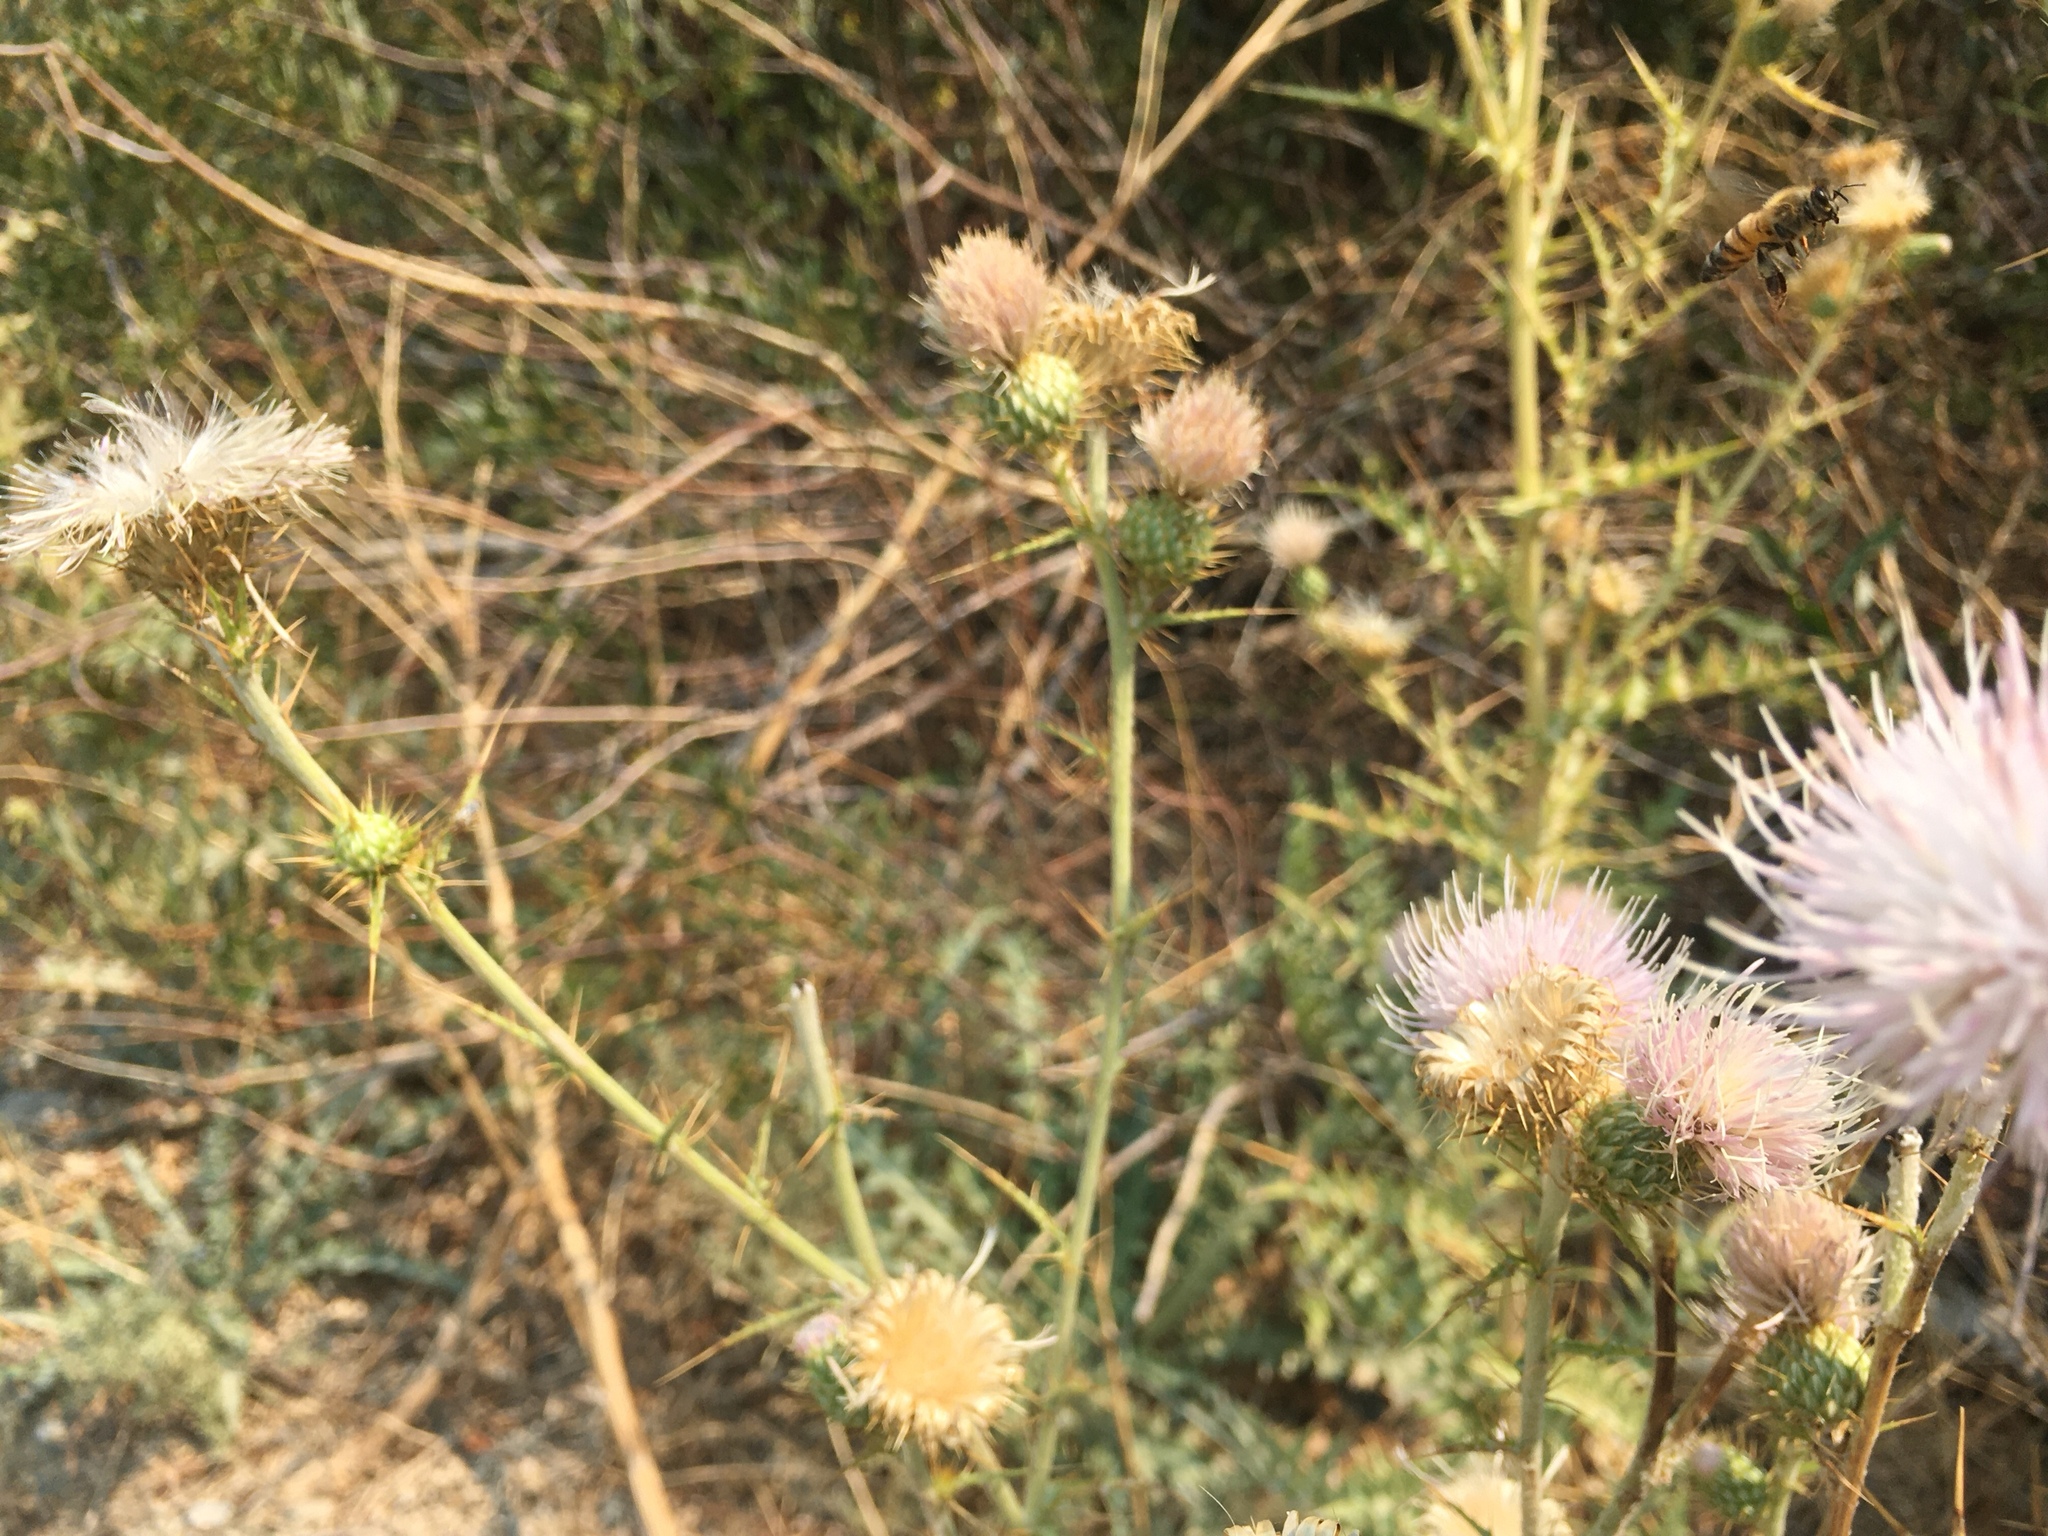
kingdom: Plantae
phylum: Tracheophyta
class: Magnoliopsida
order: Asterales
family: Asteraceae
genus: Cirsium
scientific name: Cirsium mohavense
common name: Mojave thistle
